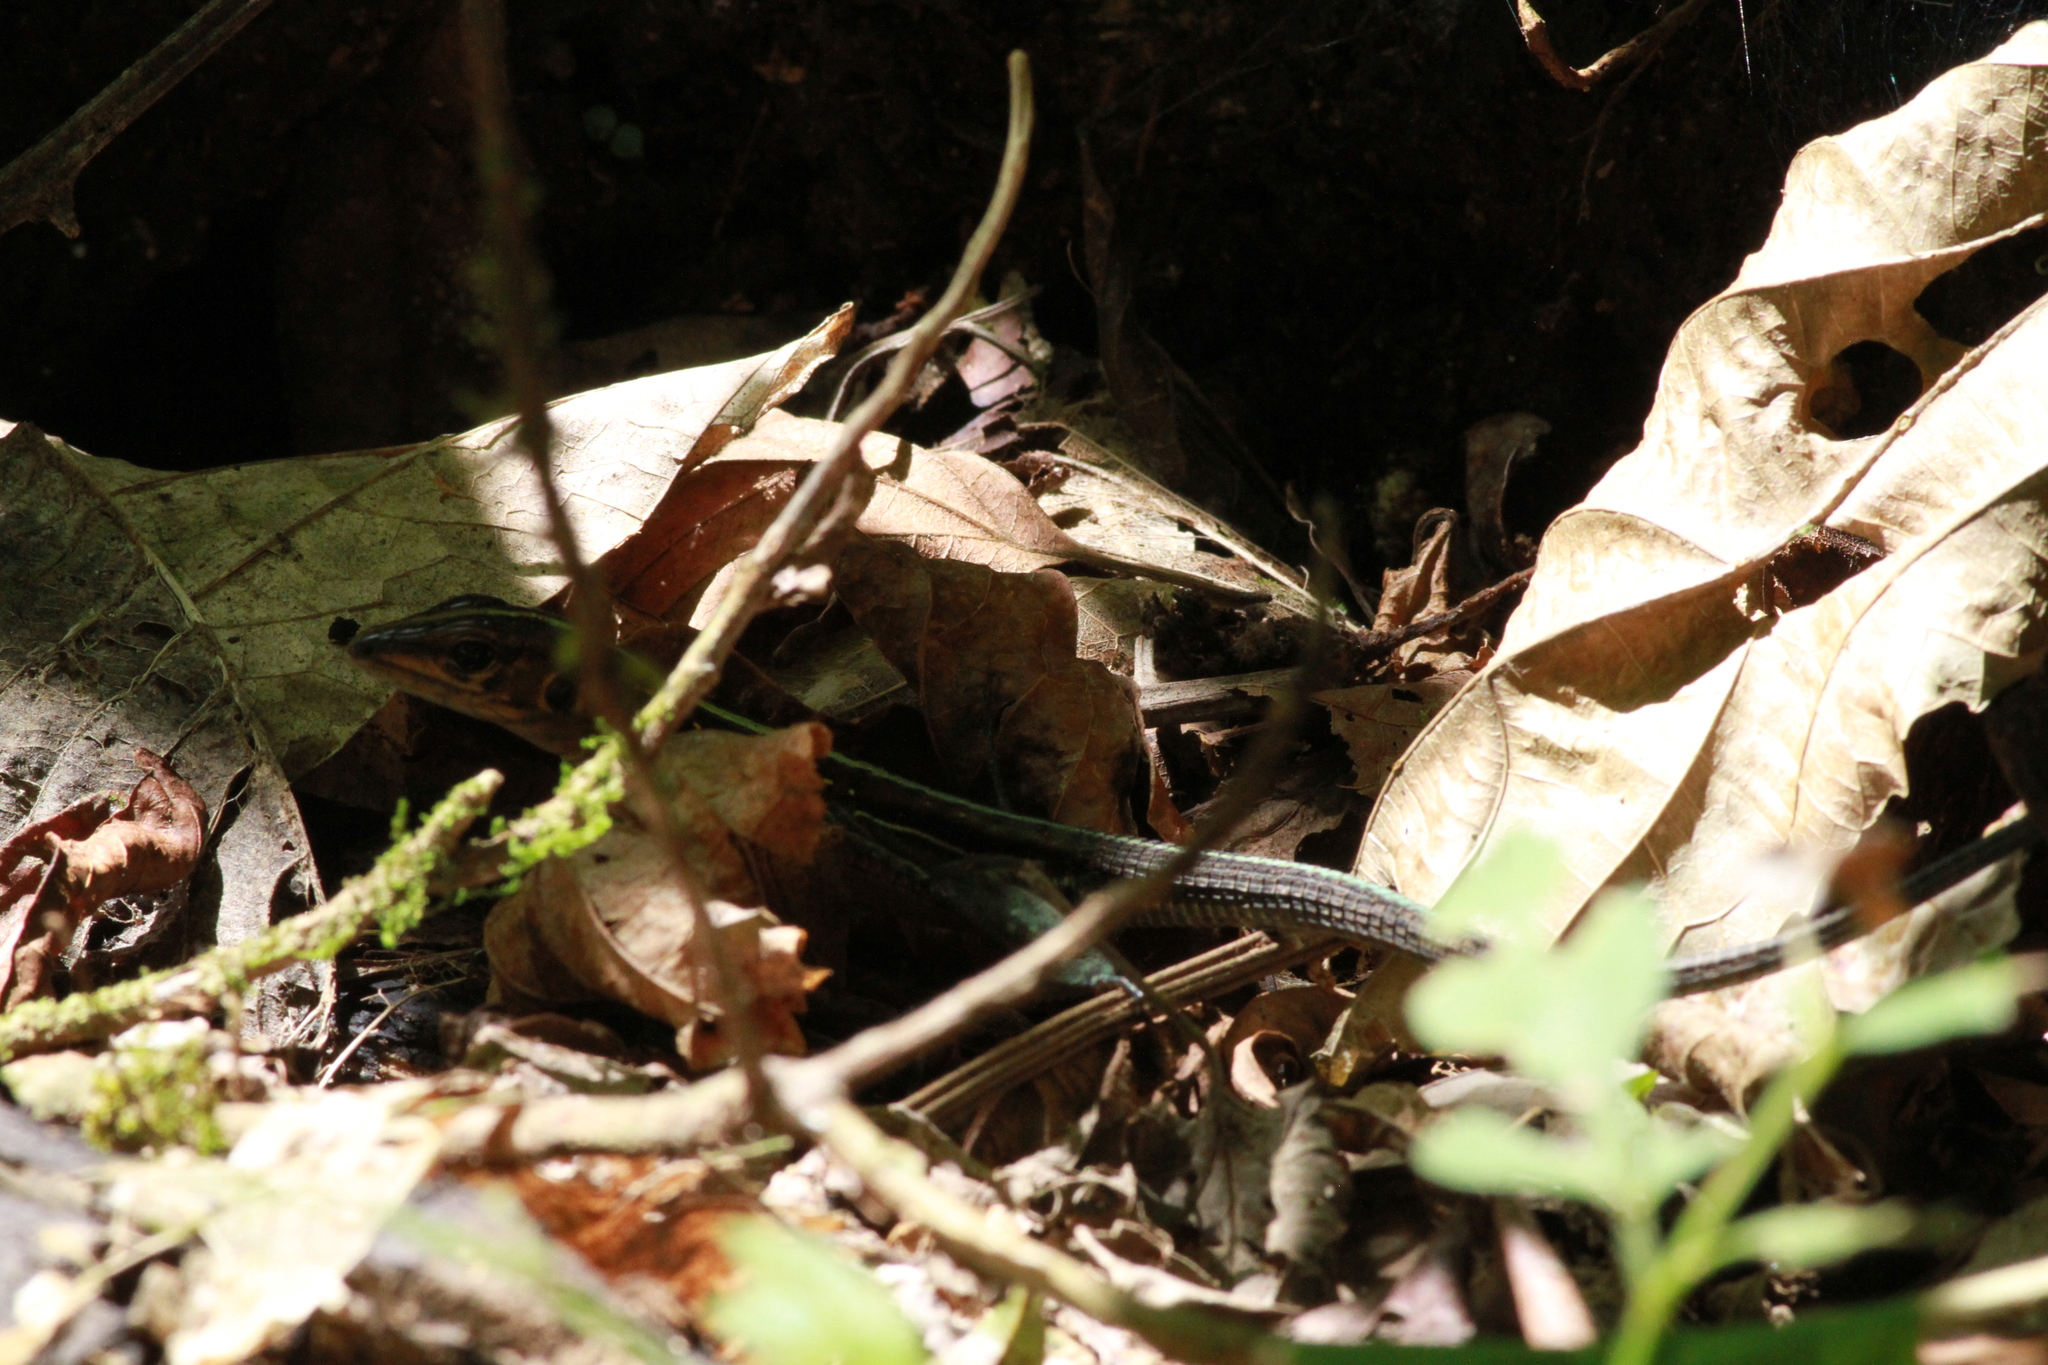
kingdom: Animalia
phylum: Chordata
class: Squamata
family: Teiidae
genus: Holcosus
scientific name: Holcosus festivus
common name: Middle american ameiva
